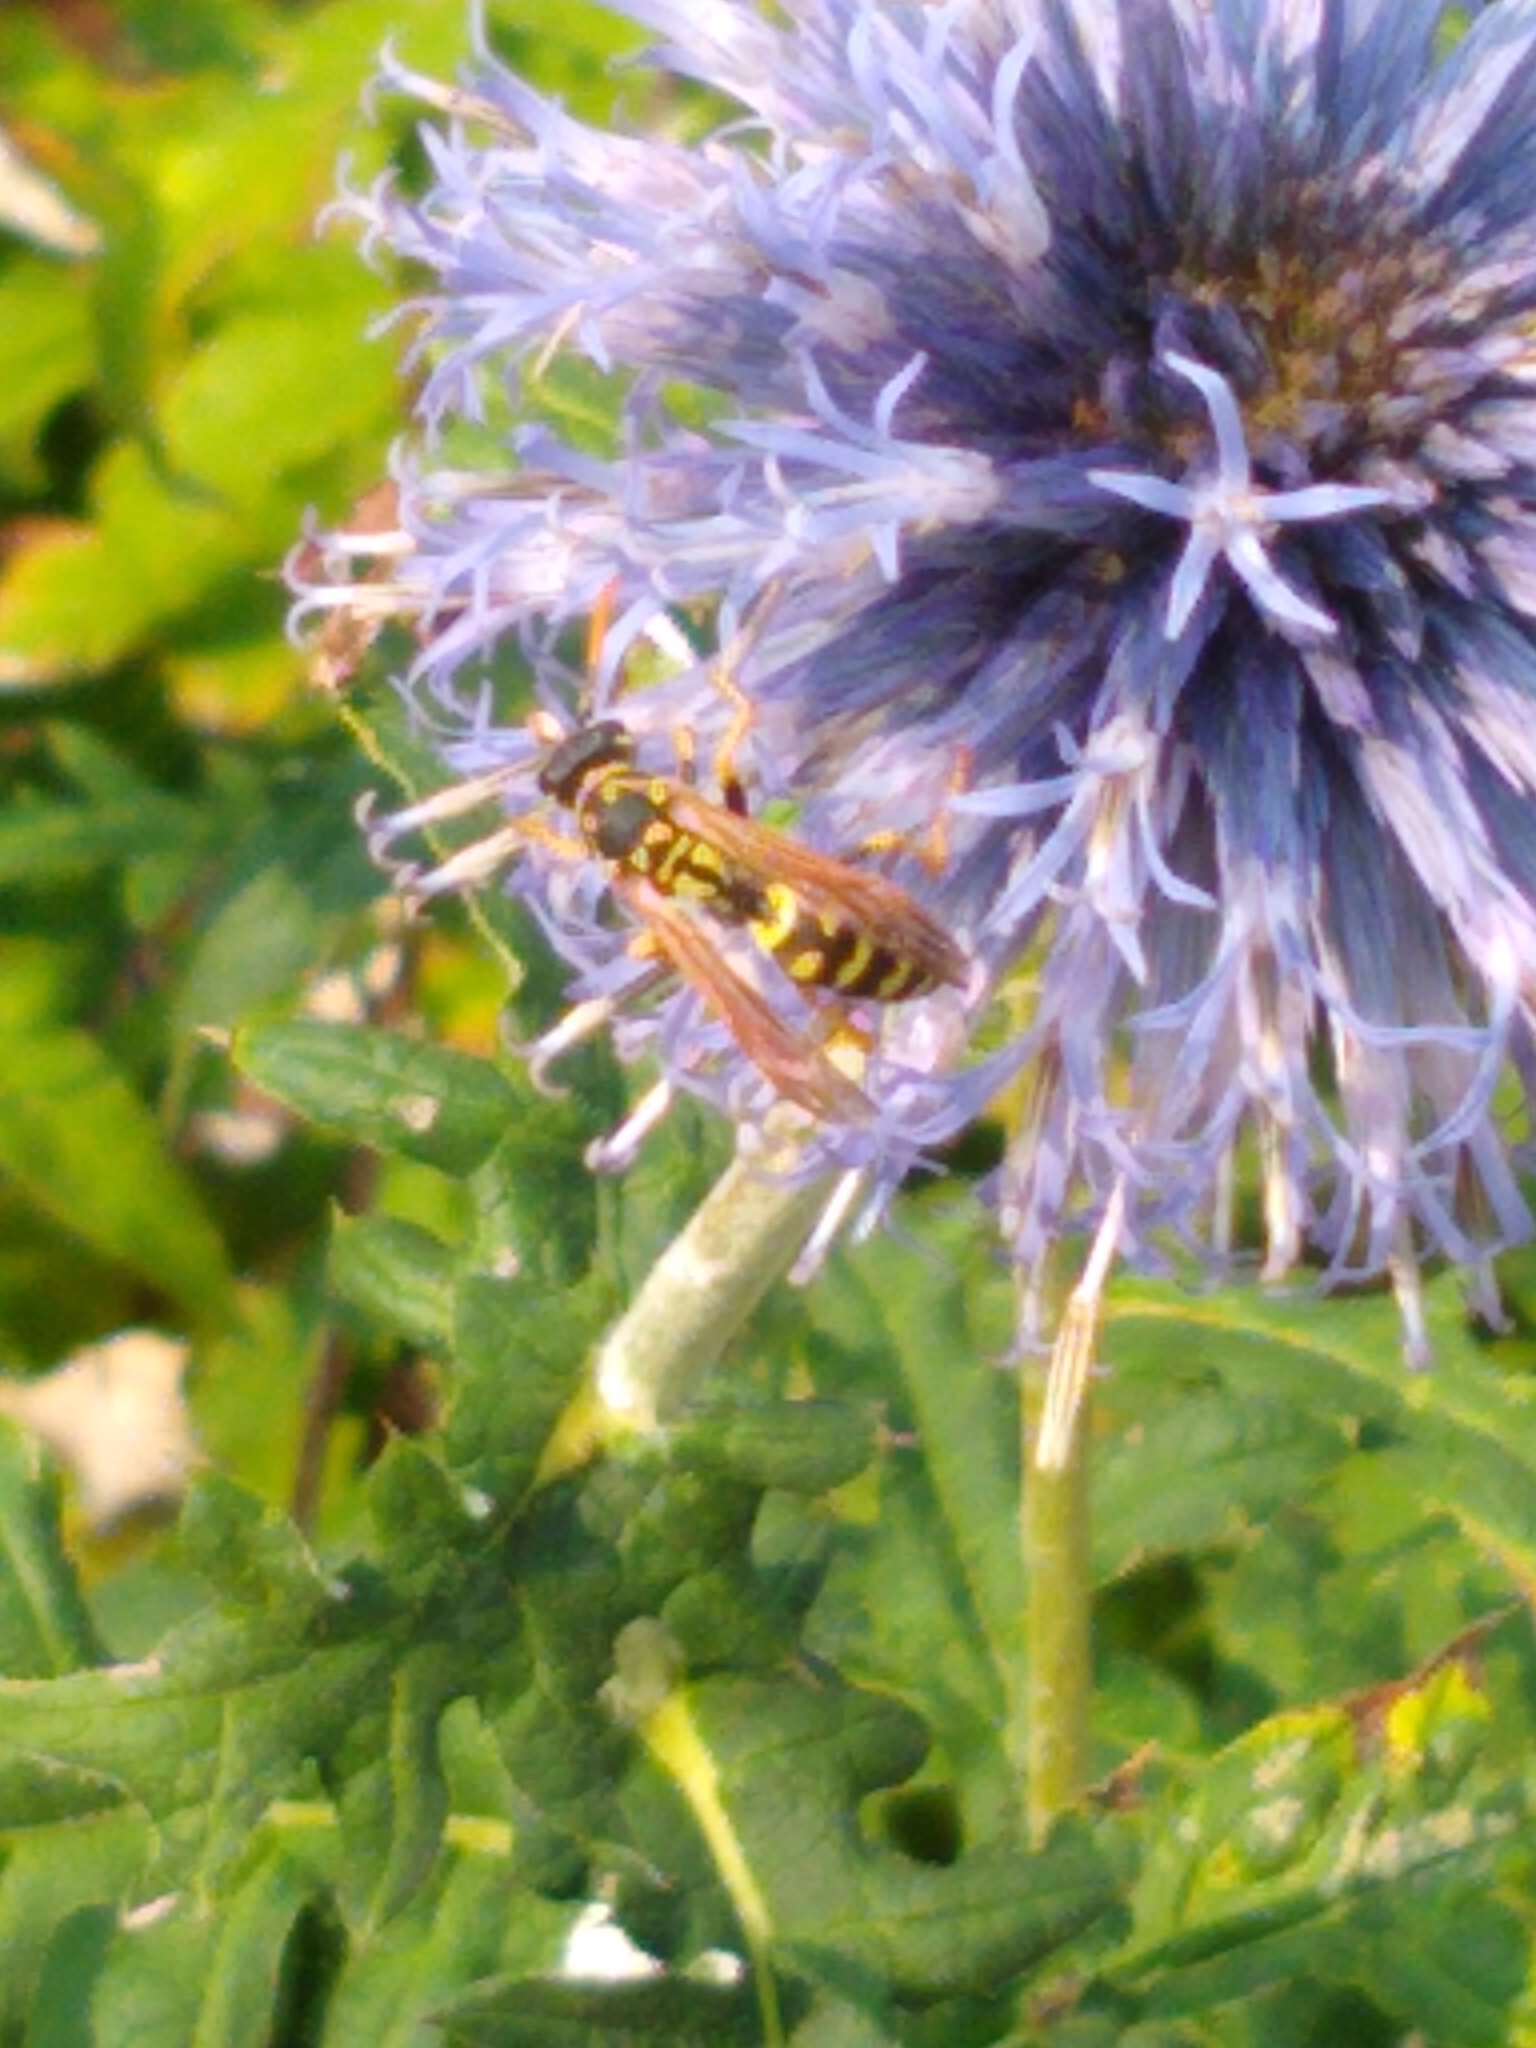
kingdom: Animalia
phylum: Arthropoda
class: Insecta
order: Hymenoptera
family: Eumenidae
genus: Polistes
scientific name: Polistes dominula
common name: Paper wasp
